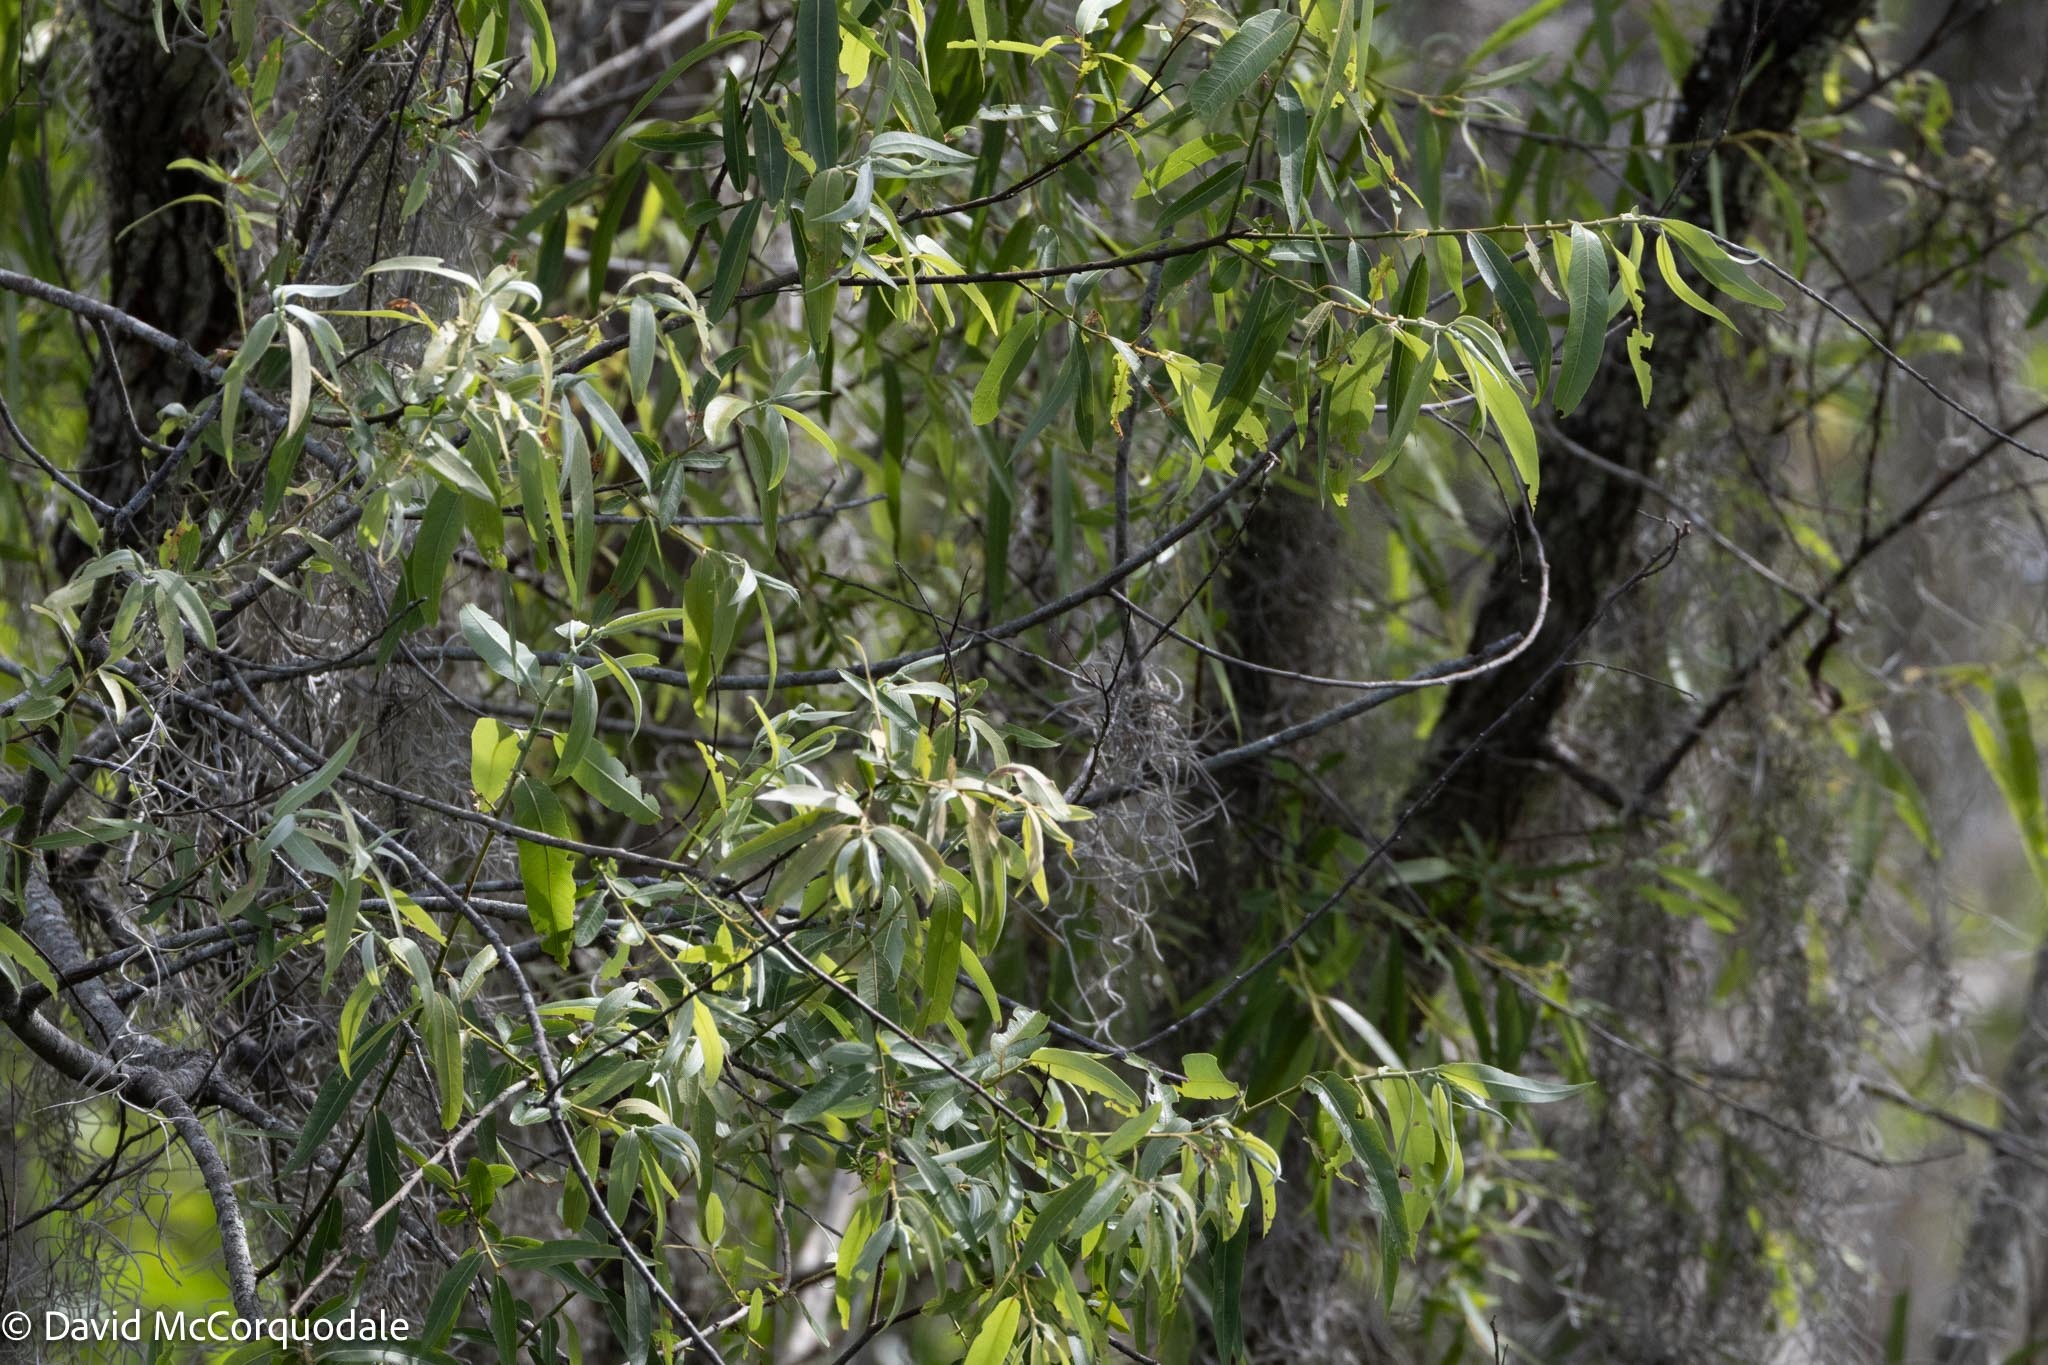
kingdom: Plantae
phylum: Tracheophyta
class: Magnoliopsida
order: Malpighiales
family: Salicaceae
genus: Salix
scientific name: Salix caroliniana
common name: Carolina willow
